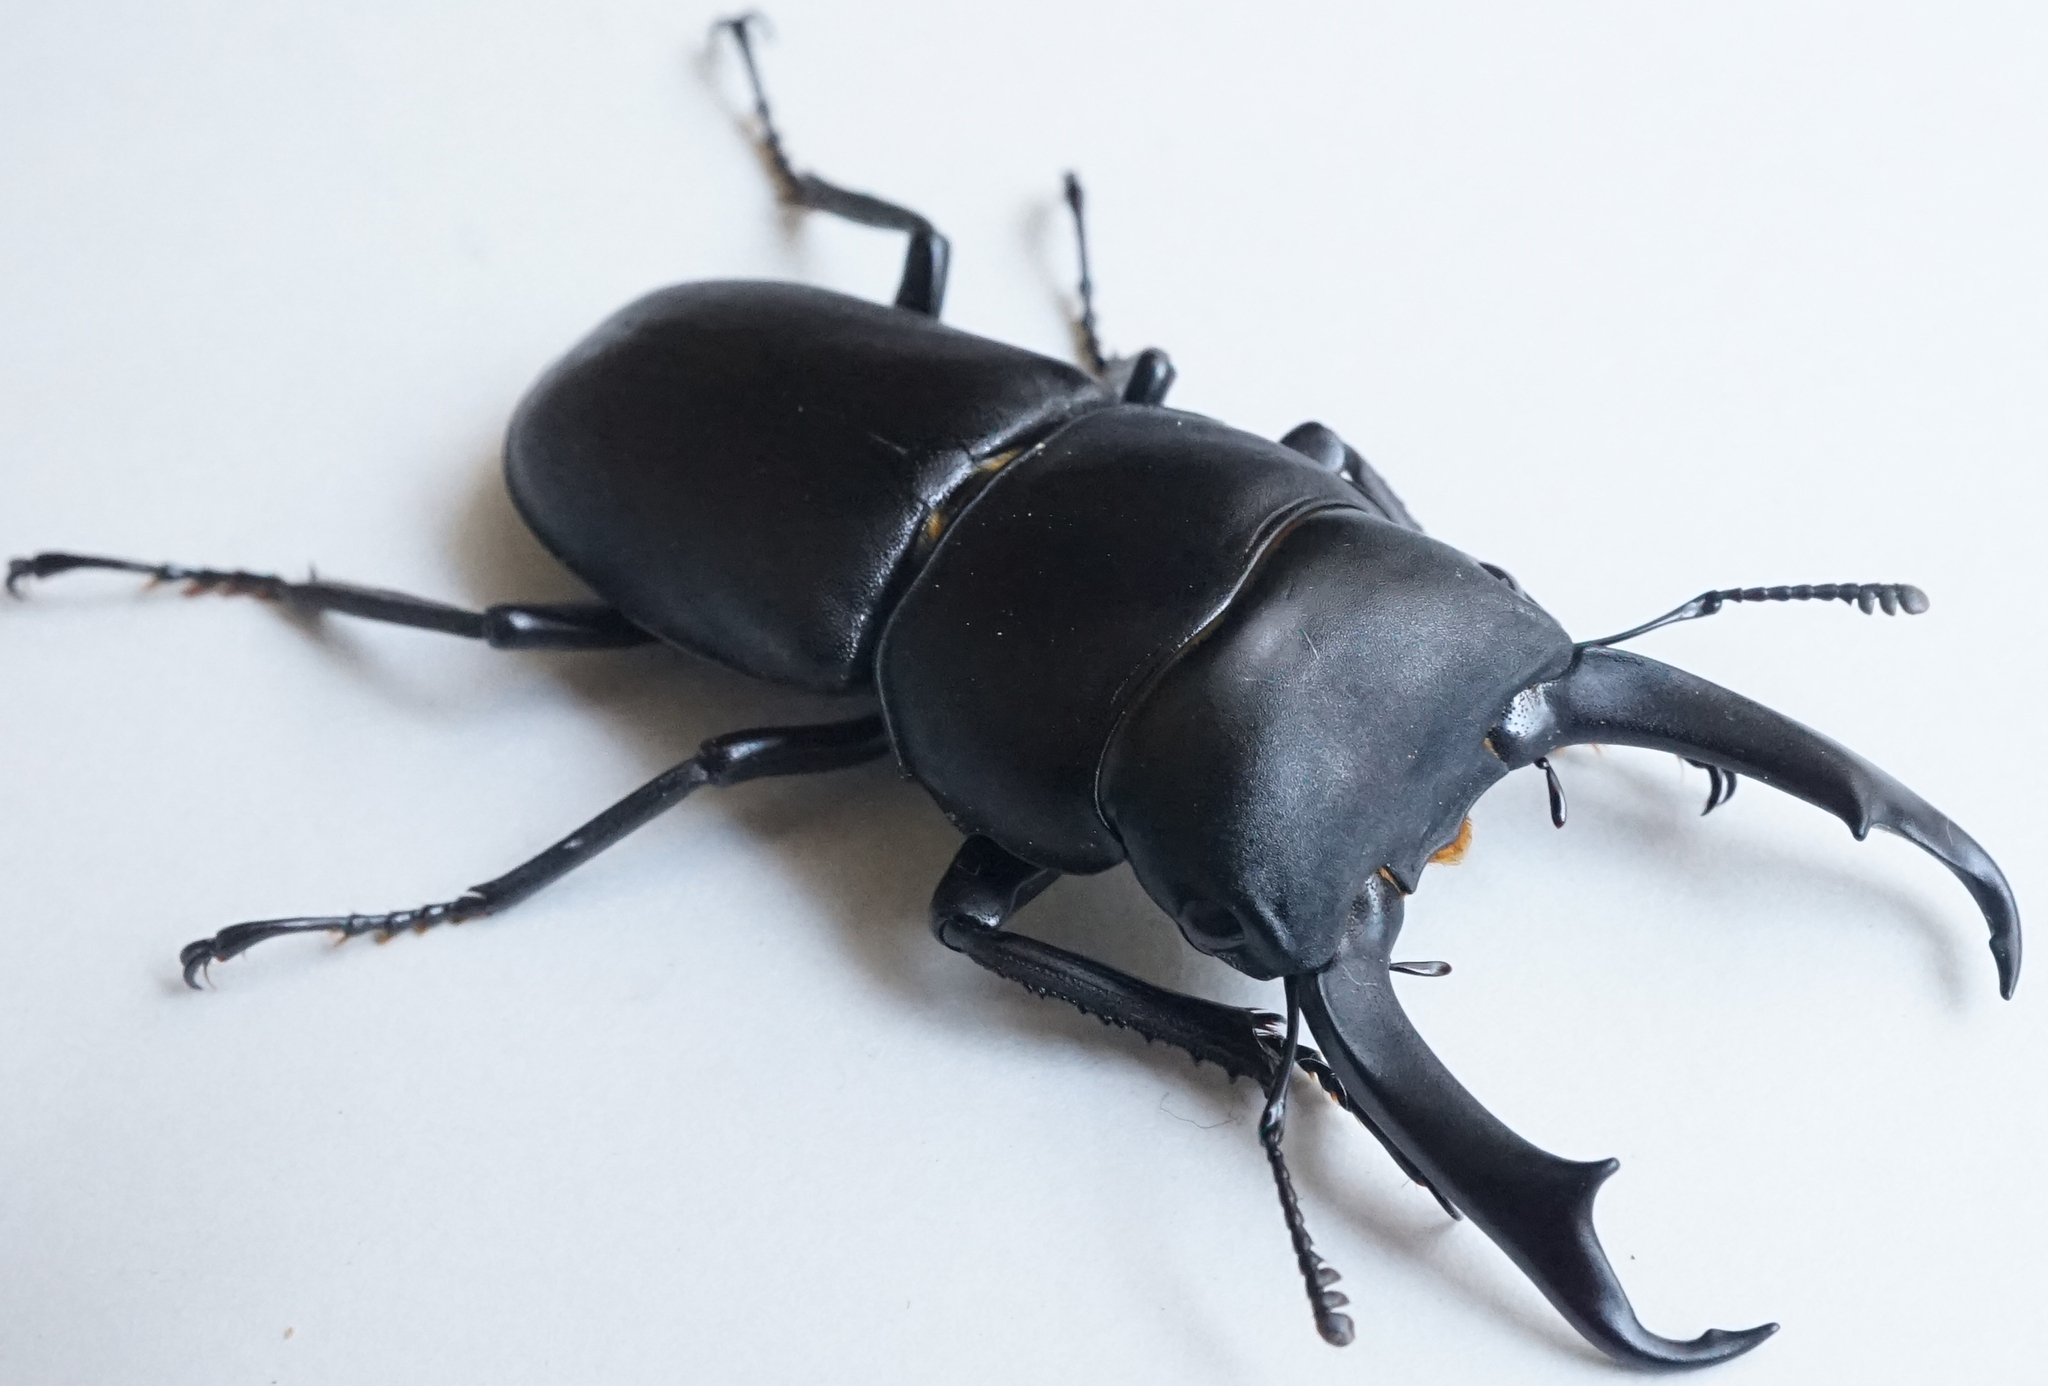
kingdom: Animalia
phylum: Arthropoda
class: Insecta
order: Coleoptera
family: Lucanidae
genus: Dorcus
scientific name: Dorcus rectus
